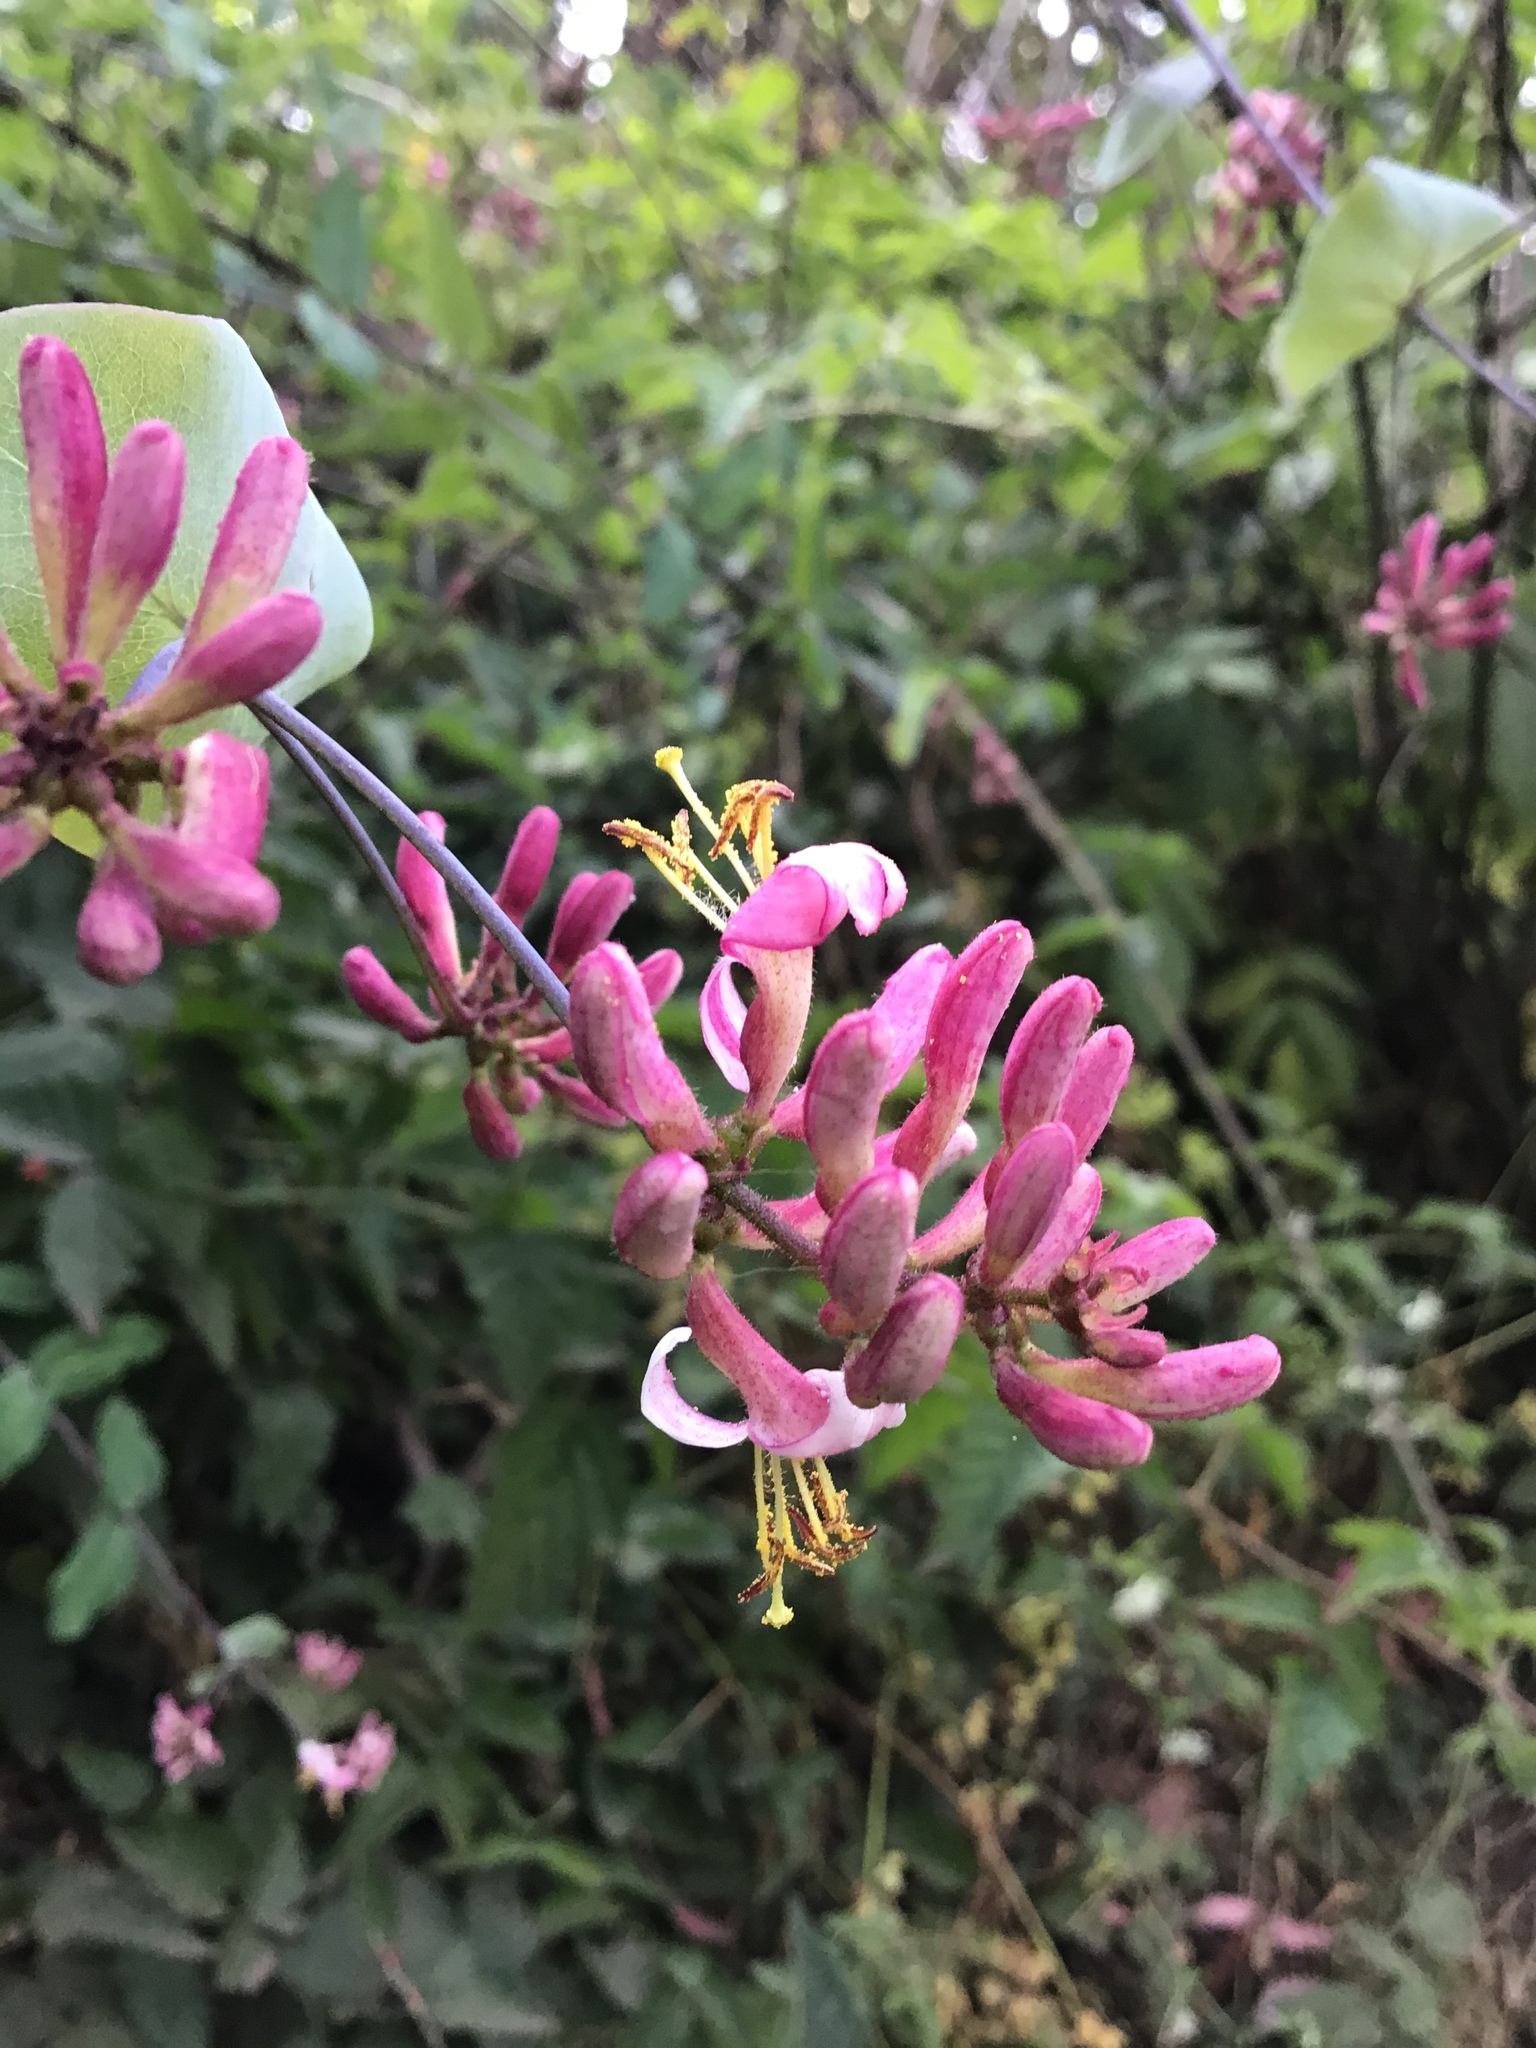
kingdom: Plantae
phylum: Tracheophyta
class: Magnoliopsida
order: Dipsacales
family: Caprifoliaceae
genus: Lonicera
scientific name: Lonicera hispidula
